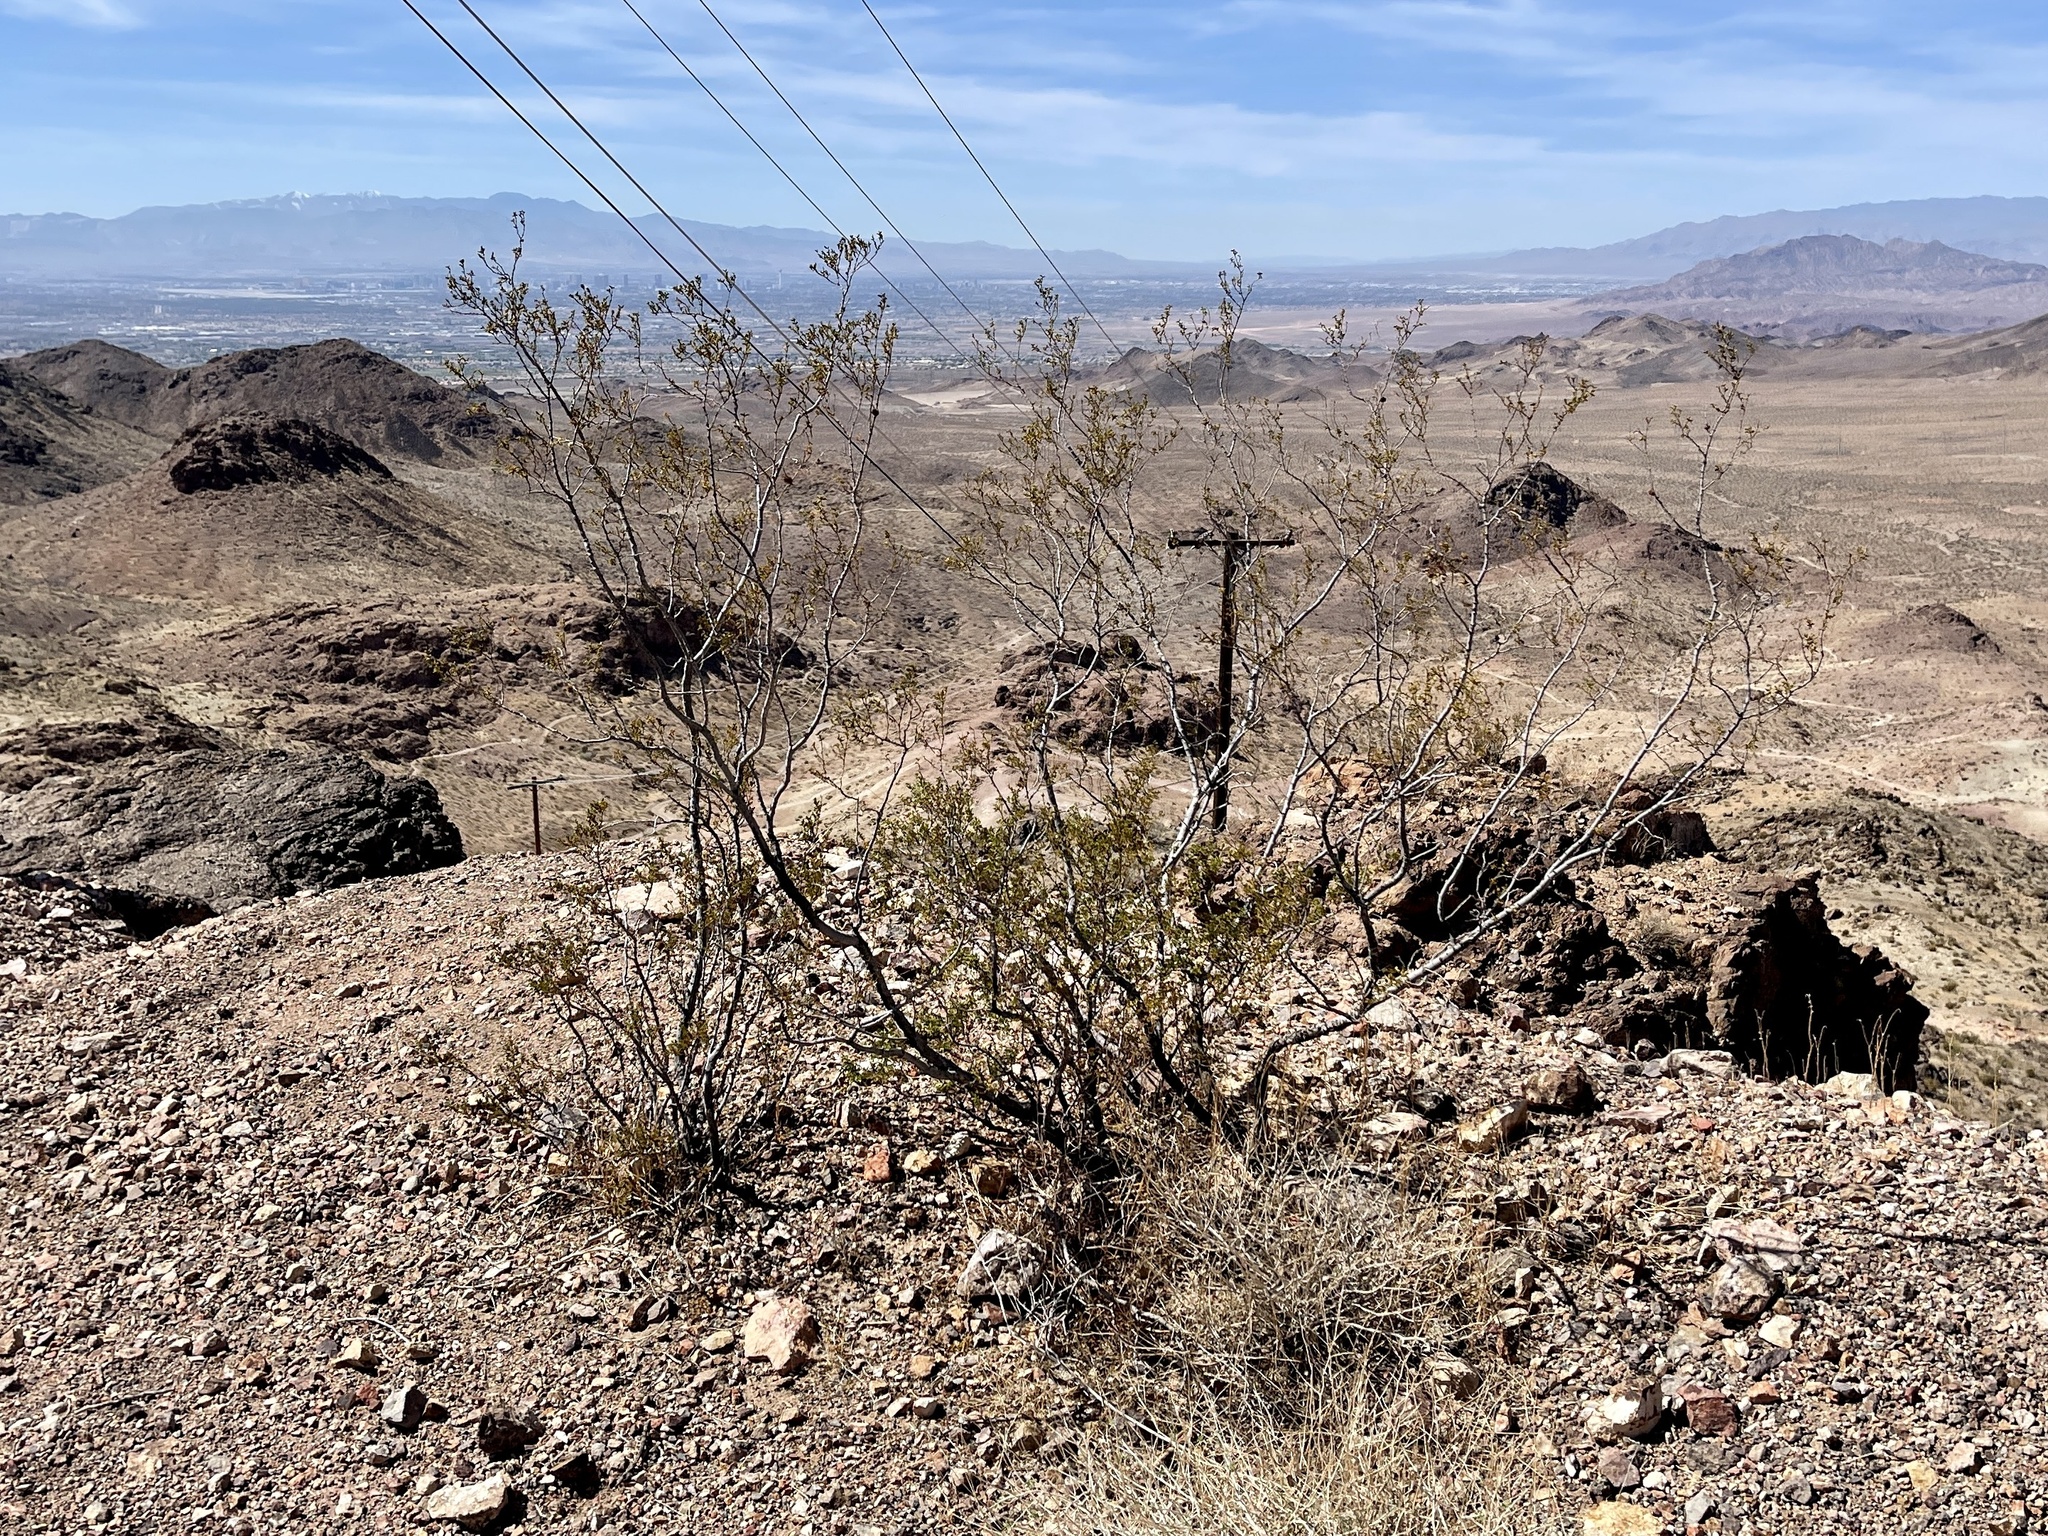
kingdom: Plantae
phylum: Tracheophyta
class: Magnoliopsida
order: Zygophyllales
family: Zygophyllaceae
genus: Larrea
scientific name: Larrea tridentata
